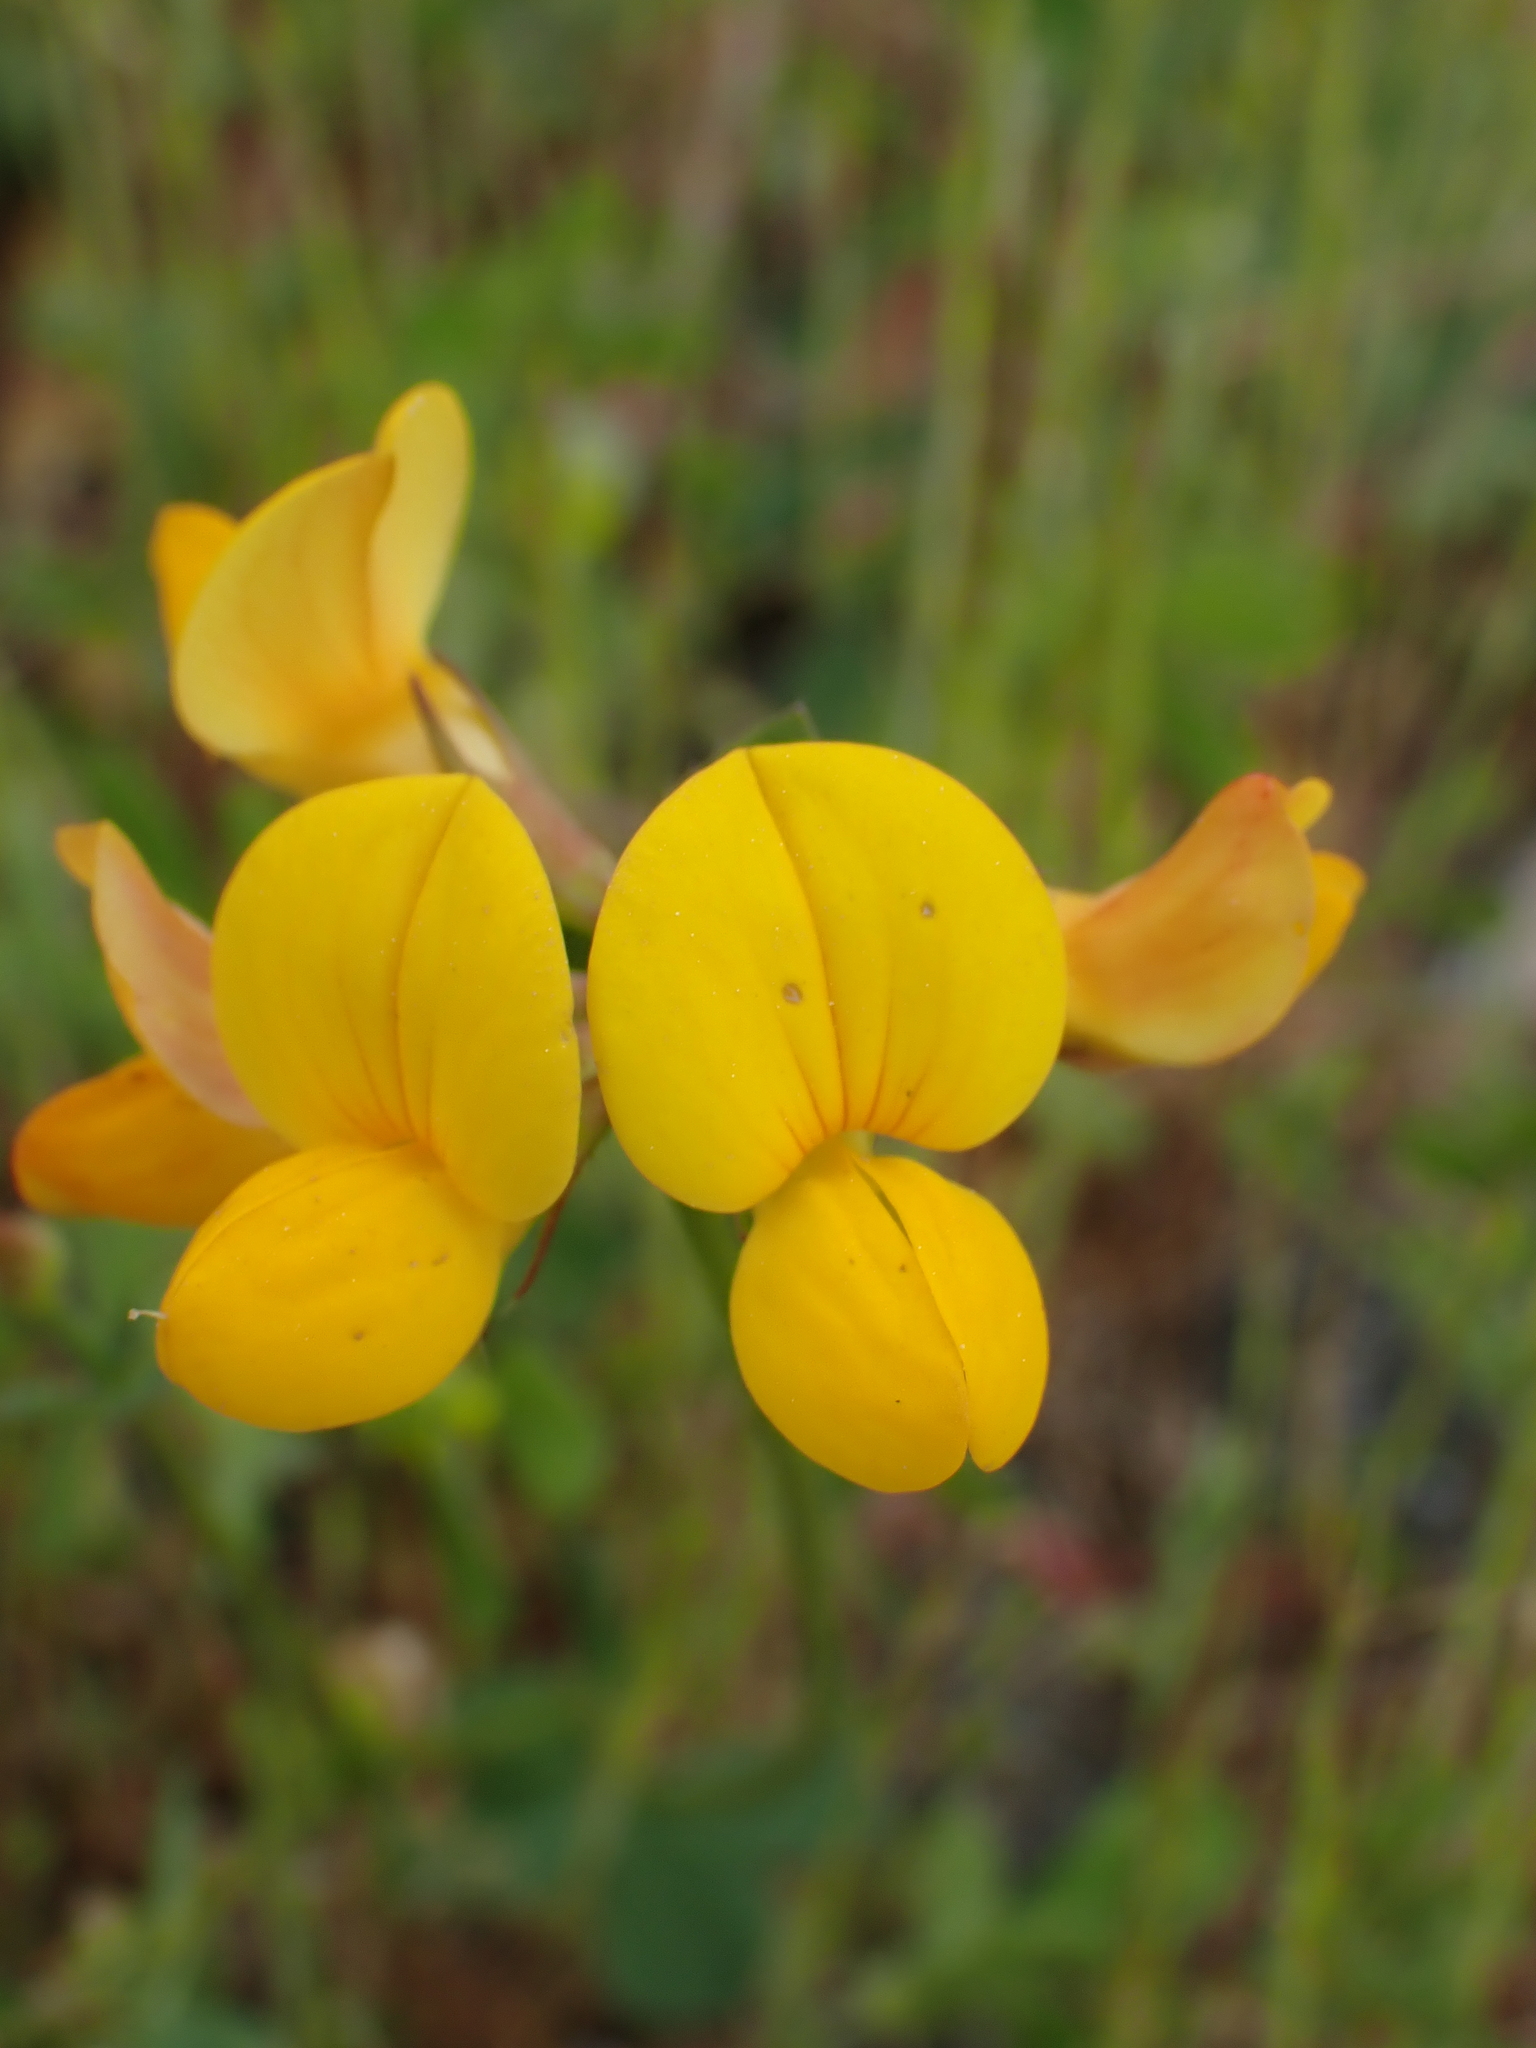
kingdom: Plantae
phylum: Tracheophyta
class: Magnoliopsida
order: Fabales
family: Fabaceae
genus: Lotus
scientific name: Lotus corniculatus
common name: Common bird's-foot-trefoil
